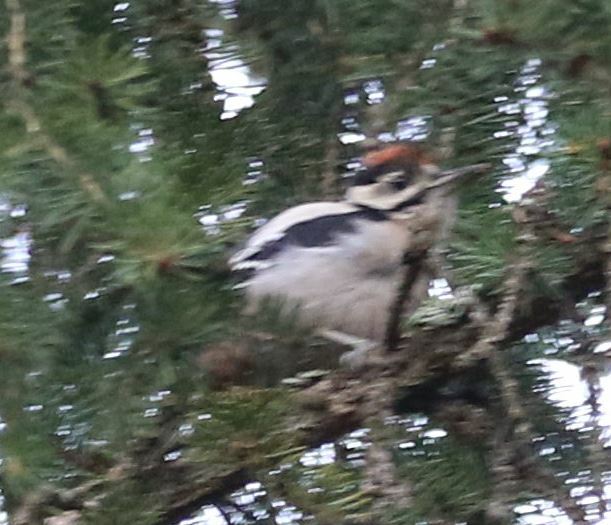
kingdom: Animalia
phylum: Chordata
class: Aves
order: Piciformes
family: Picidae
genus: Dendrocopos
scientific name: Dendrocopos major
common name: Great spotted woodpecker
